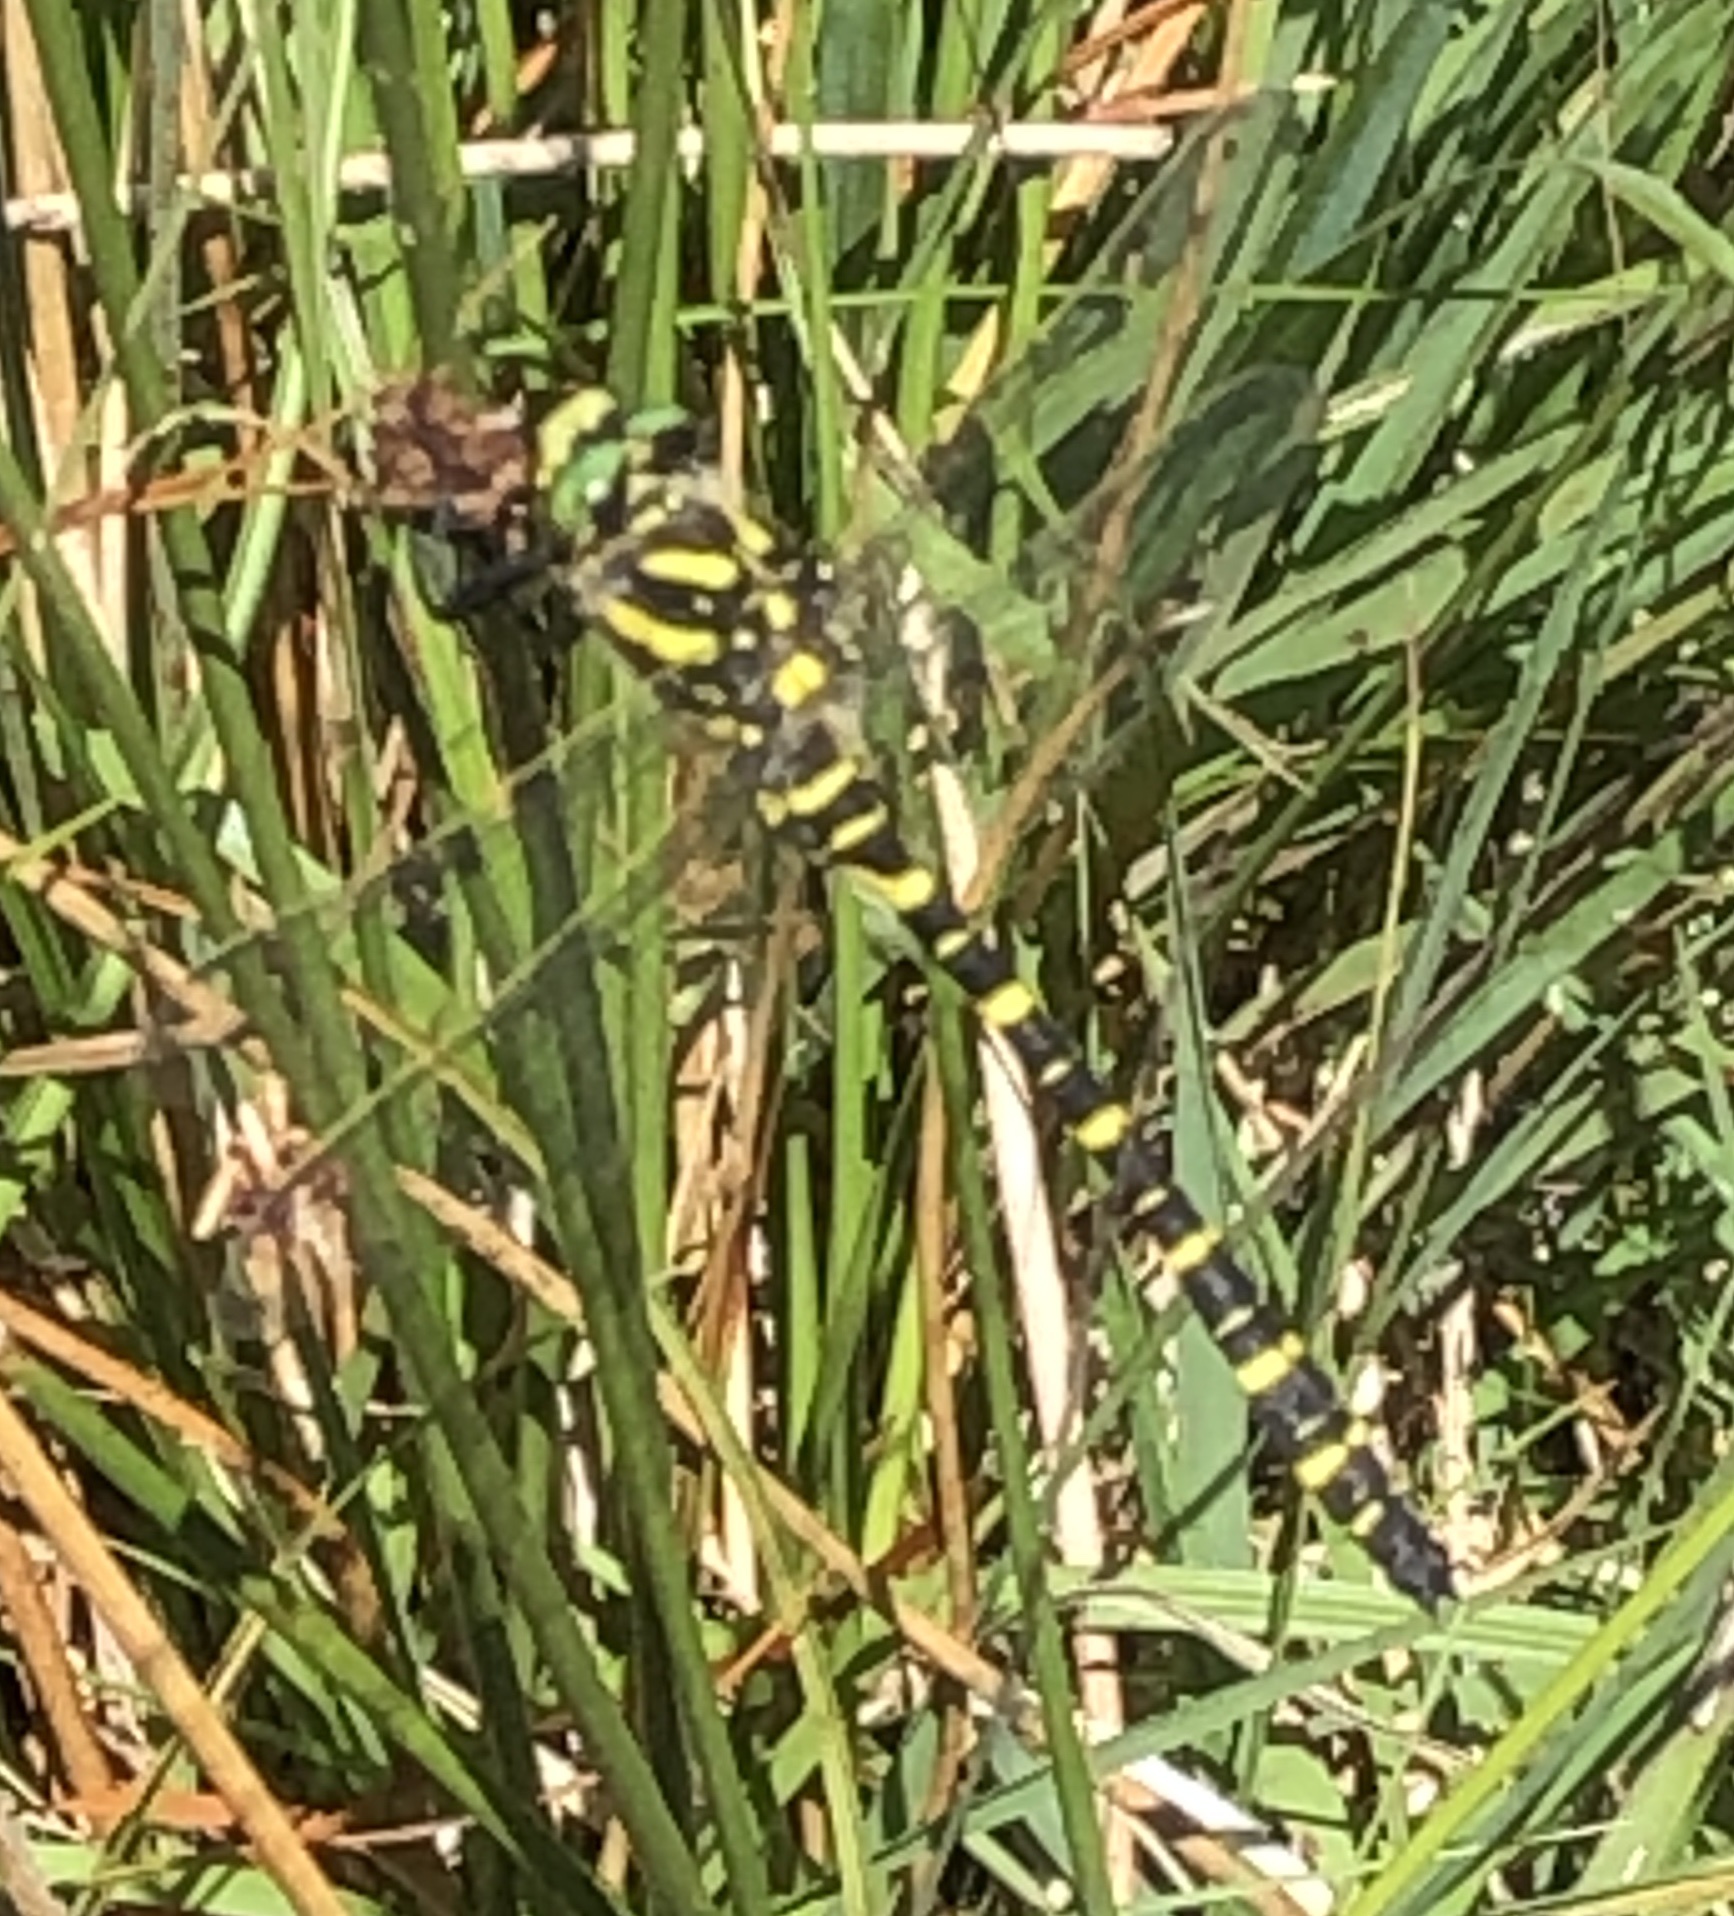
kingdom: Animalia
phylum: Arthropoda
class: Insecta
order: Odonata
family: Cordulegastridae
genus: Cordulegaster
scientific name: Cordulegaster boltonii
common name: Golden-ringed dragonfly
